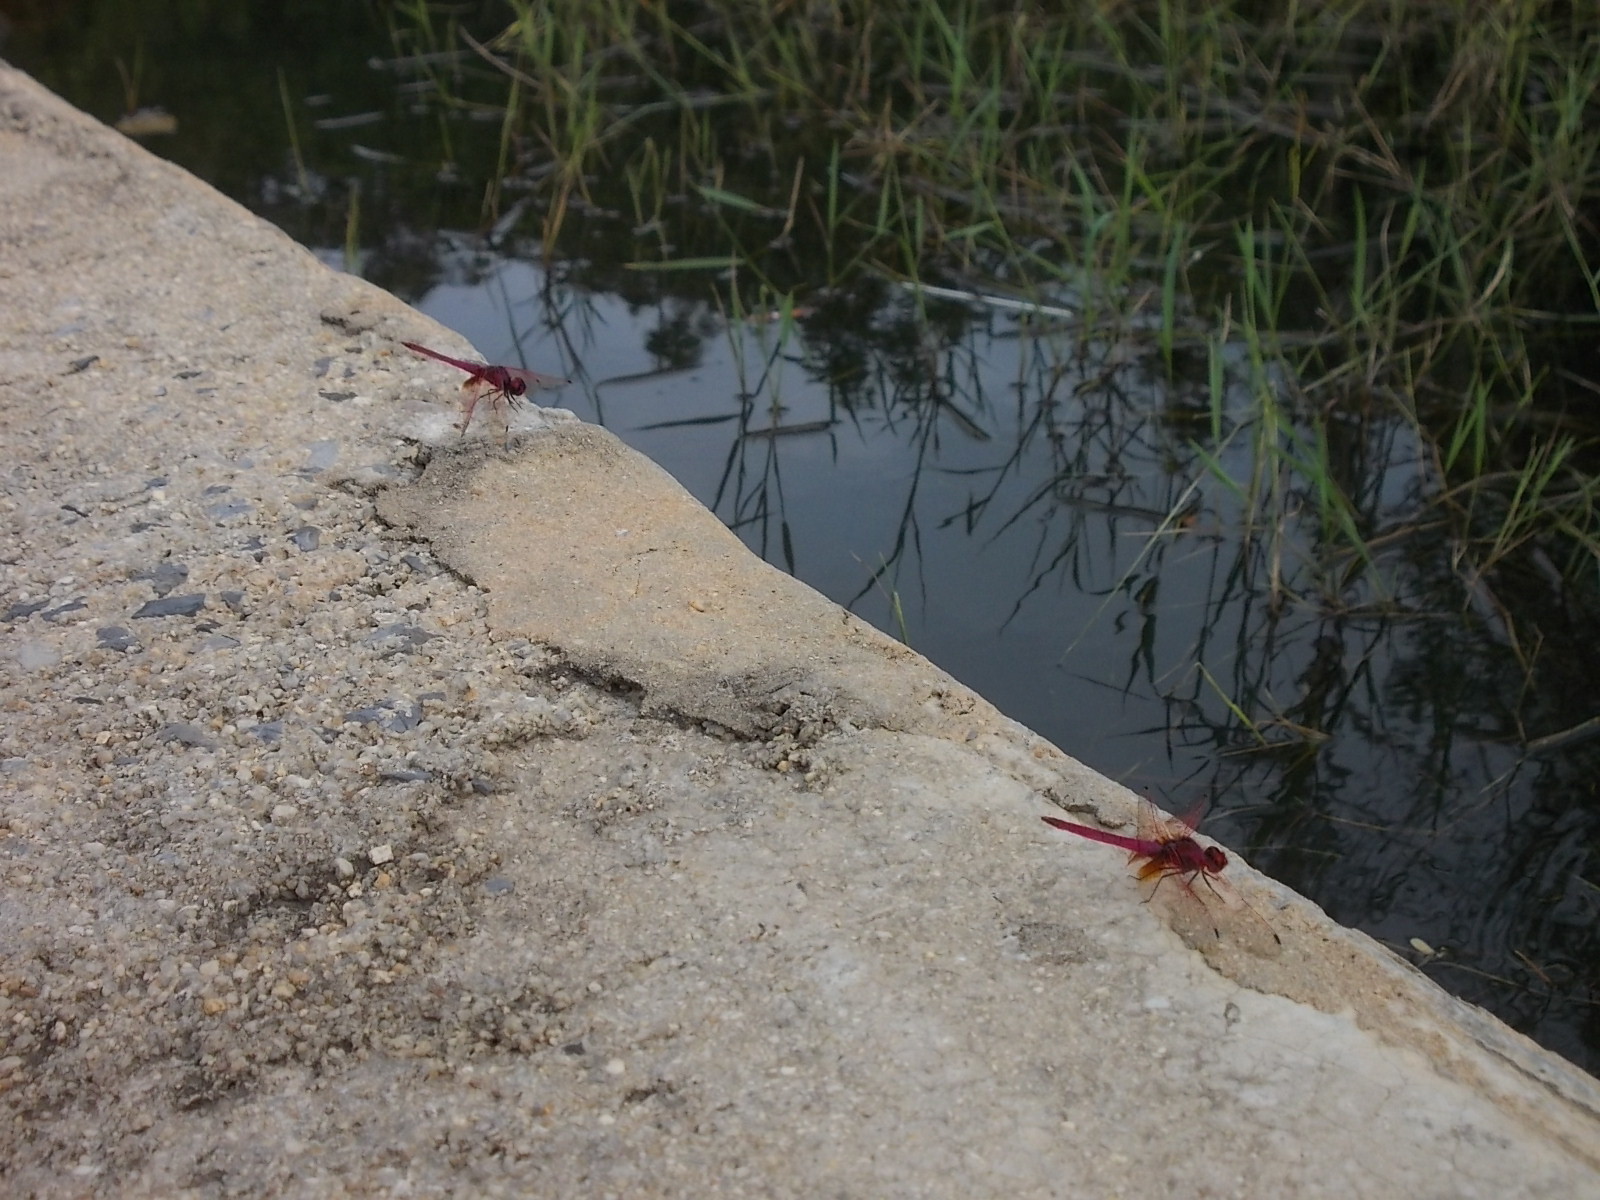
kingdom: Animalia
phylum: Arthropoda
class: Insecta
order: Odonata
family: Libellulidae
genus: Trithemis
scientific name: Trithemis aurora
